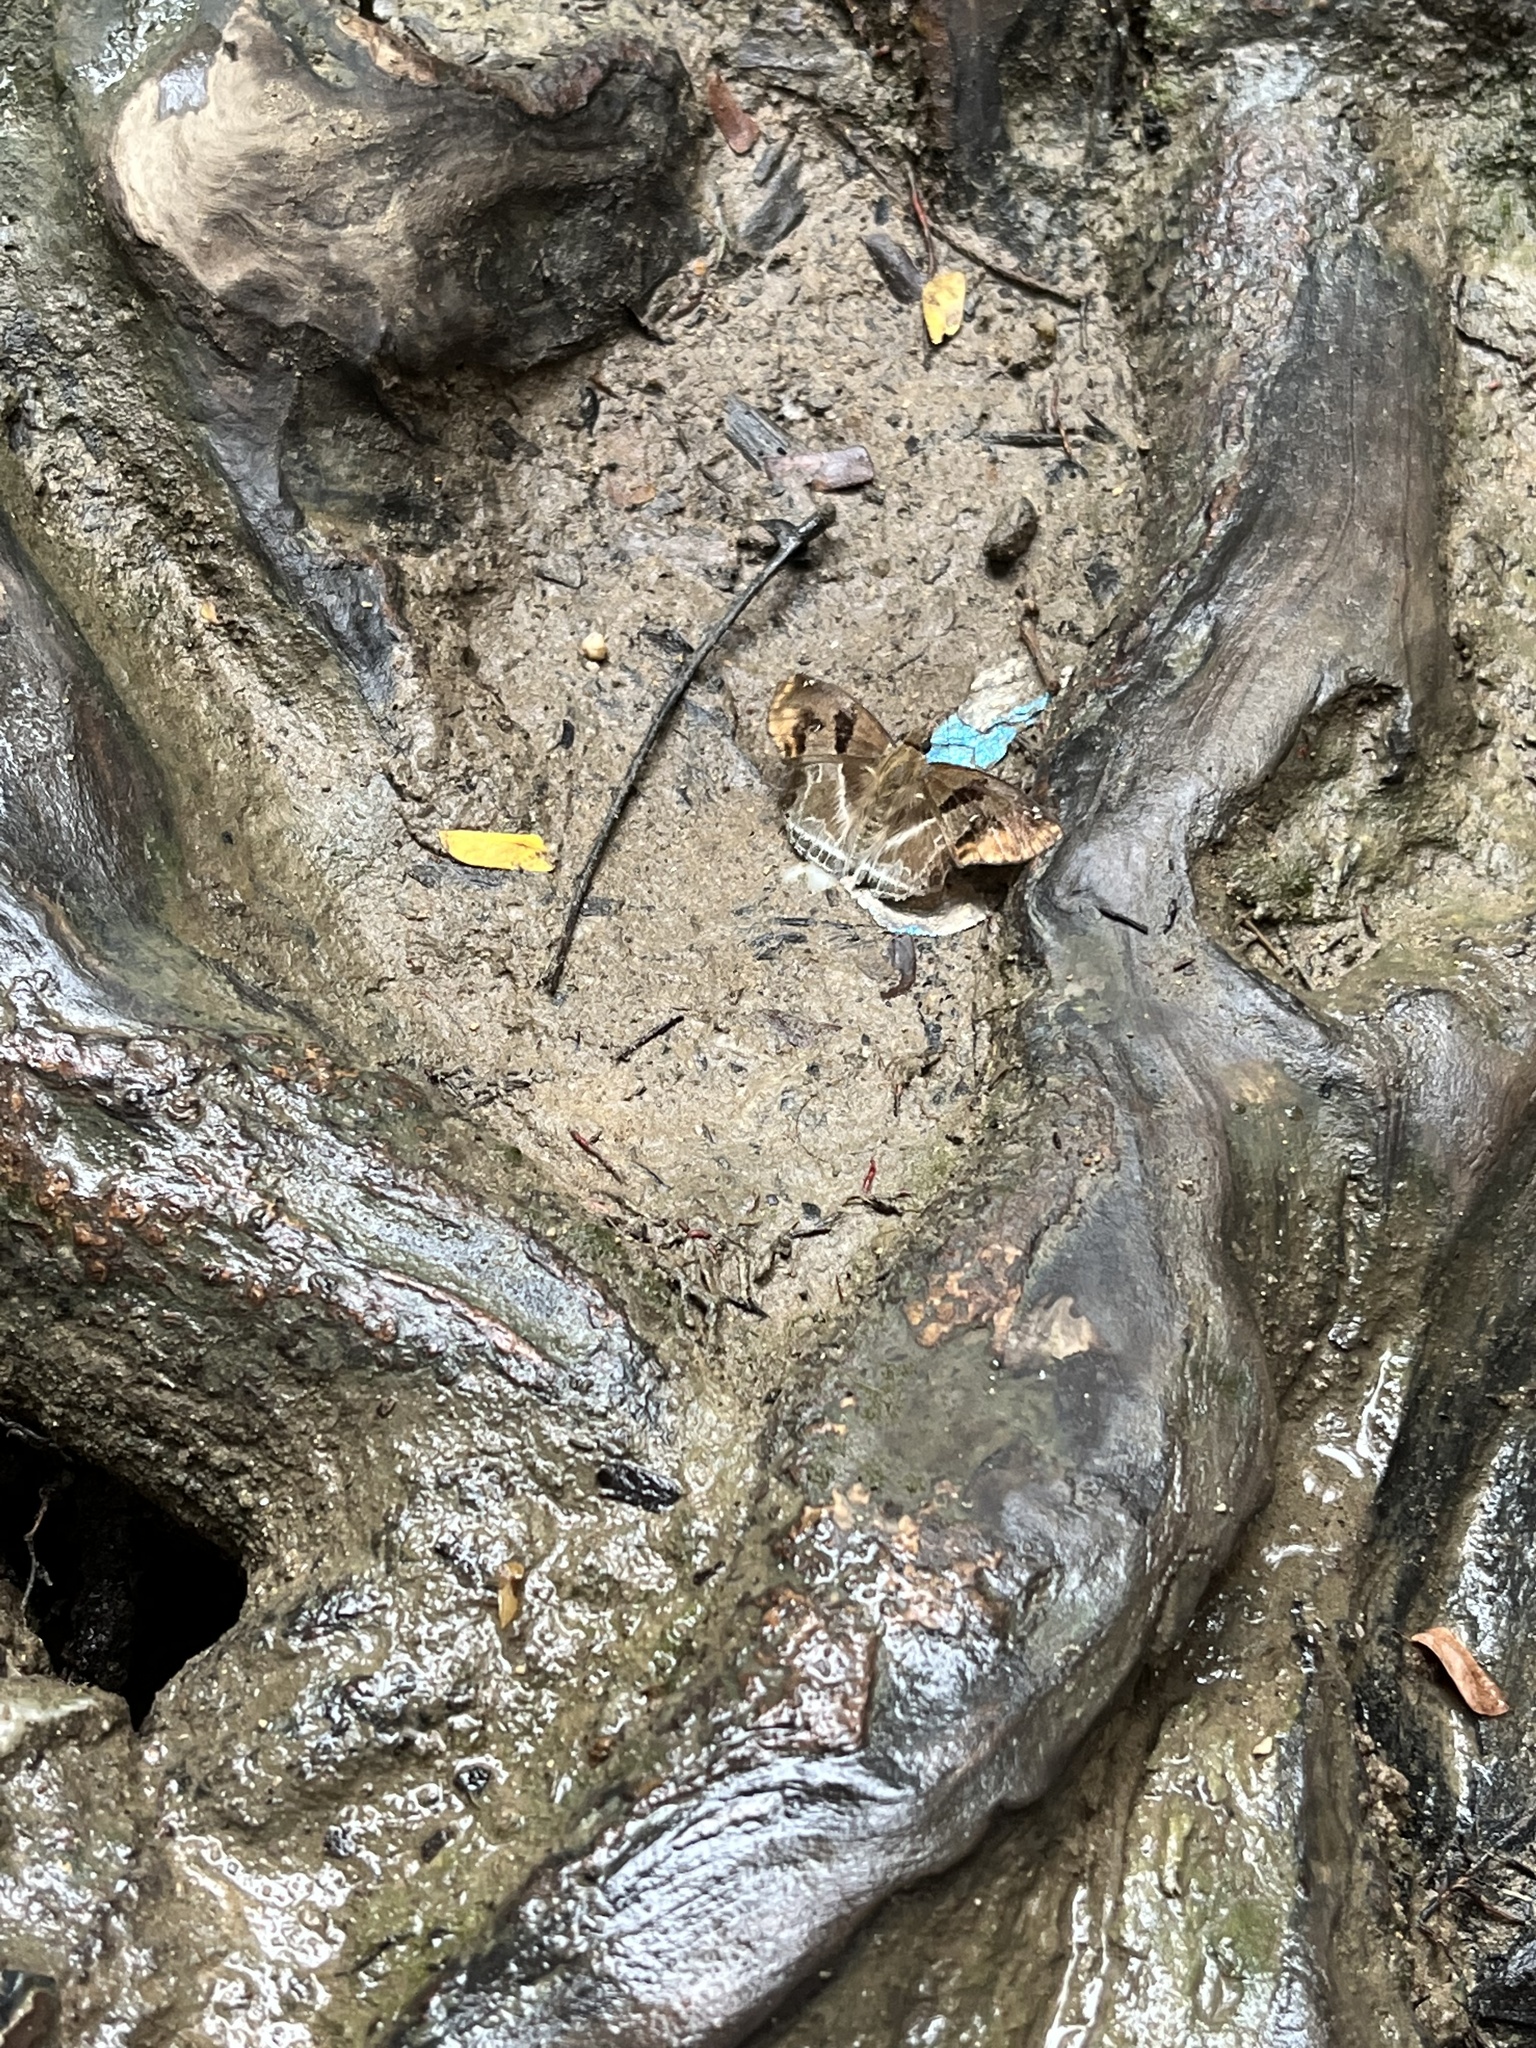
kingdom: Animalia
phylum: Arthropoda
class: Insecta
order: Lepidoptera
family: Hesperiidae
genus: Odontoptilum
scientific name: Odontoptilum angulata
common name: Chestnut banded angle
